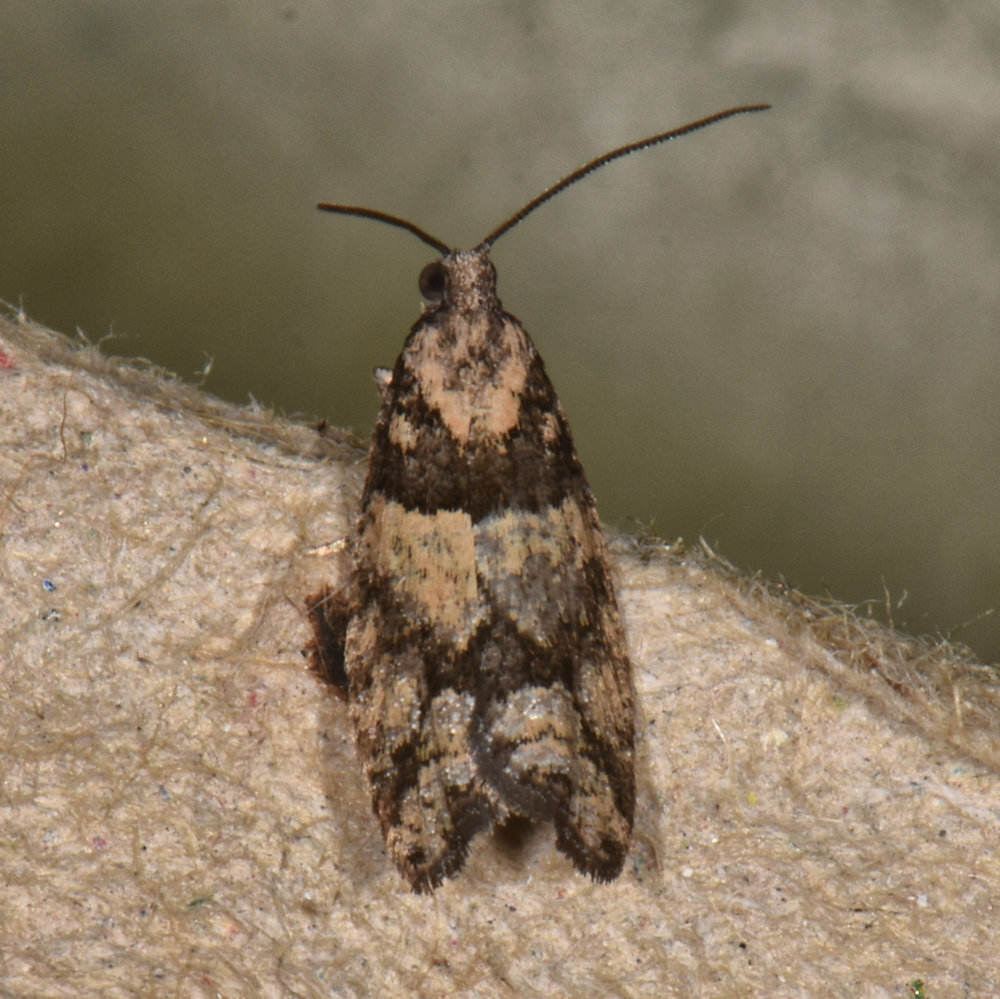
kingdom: Animalia
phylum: Arthropoda
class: Insecta
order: Lepidoptera
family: Tortricidae
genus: Epinotia
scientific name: Epinotia radicana
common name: Red-striped needleworm moth
